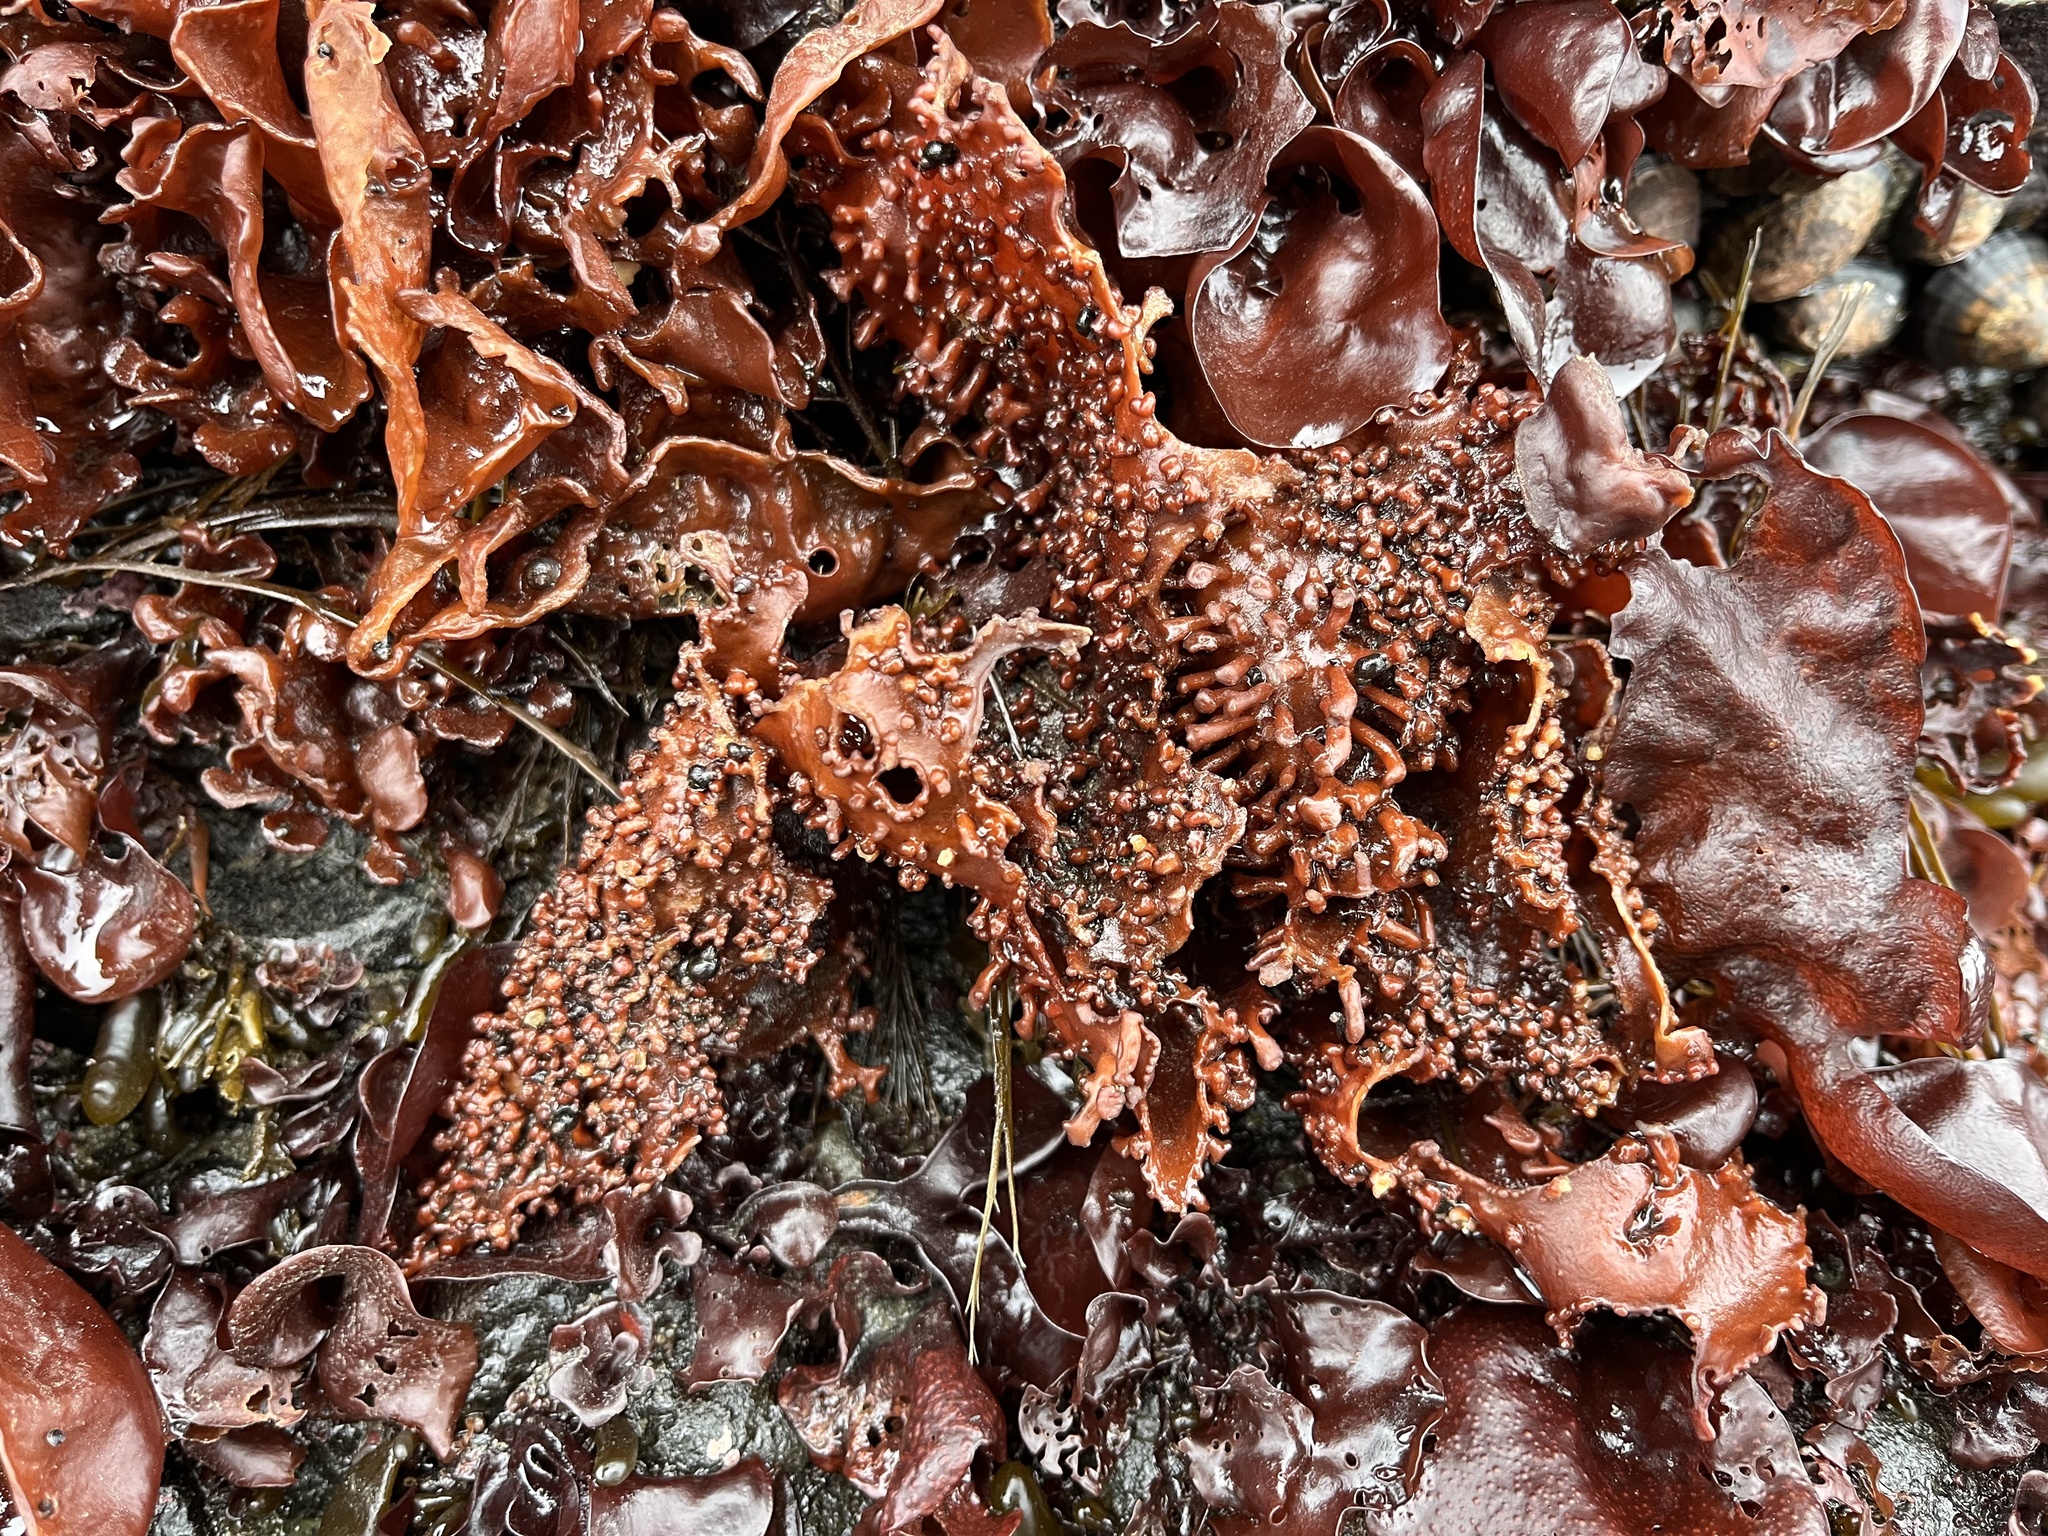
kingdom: Plantae
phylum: Rhodophyta
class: Florideophyceae
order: Gigartinales
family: Gigartinaceae
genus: Sarcopeltis
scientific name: Sarcopeltis
